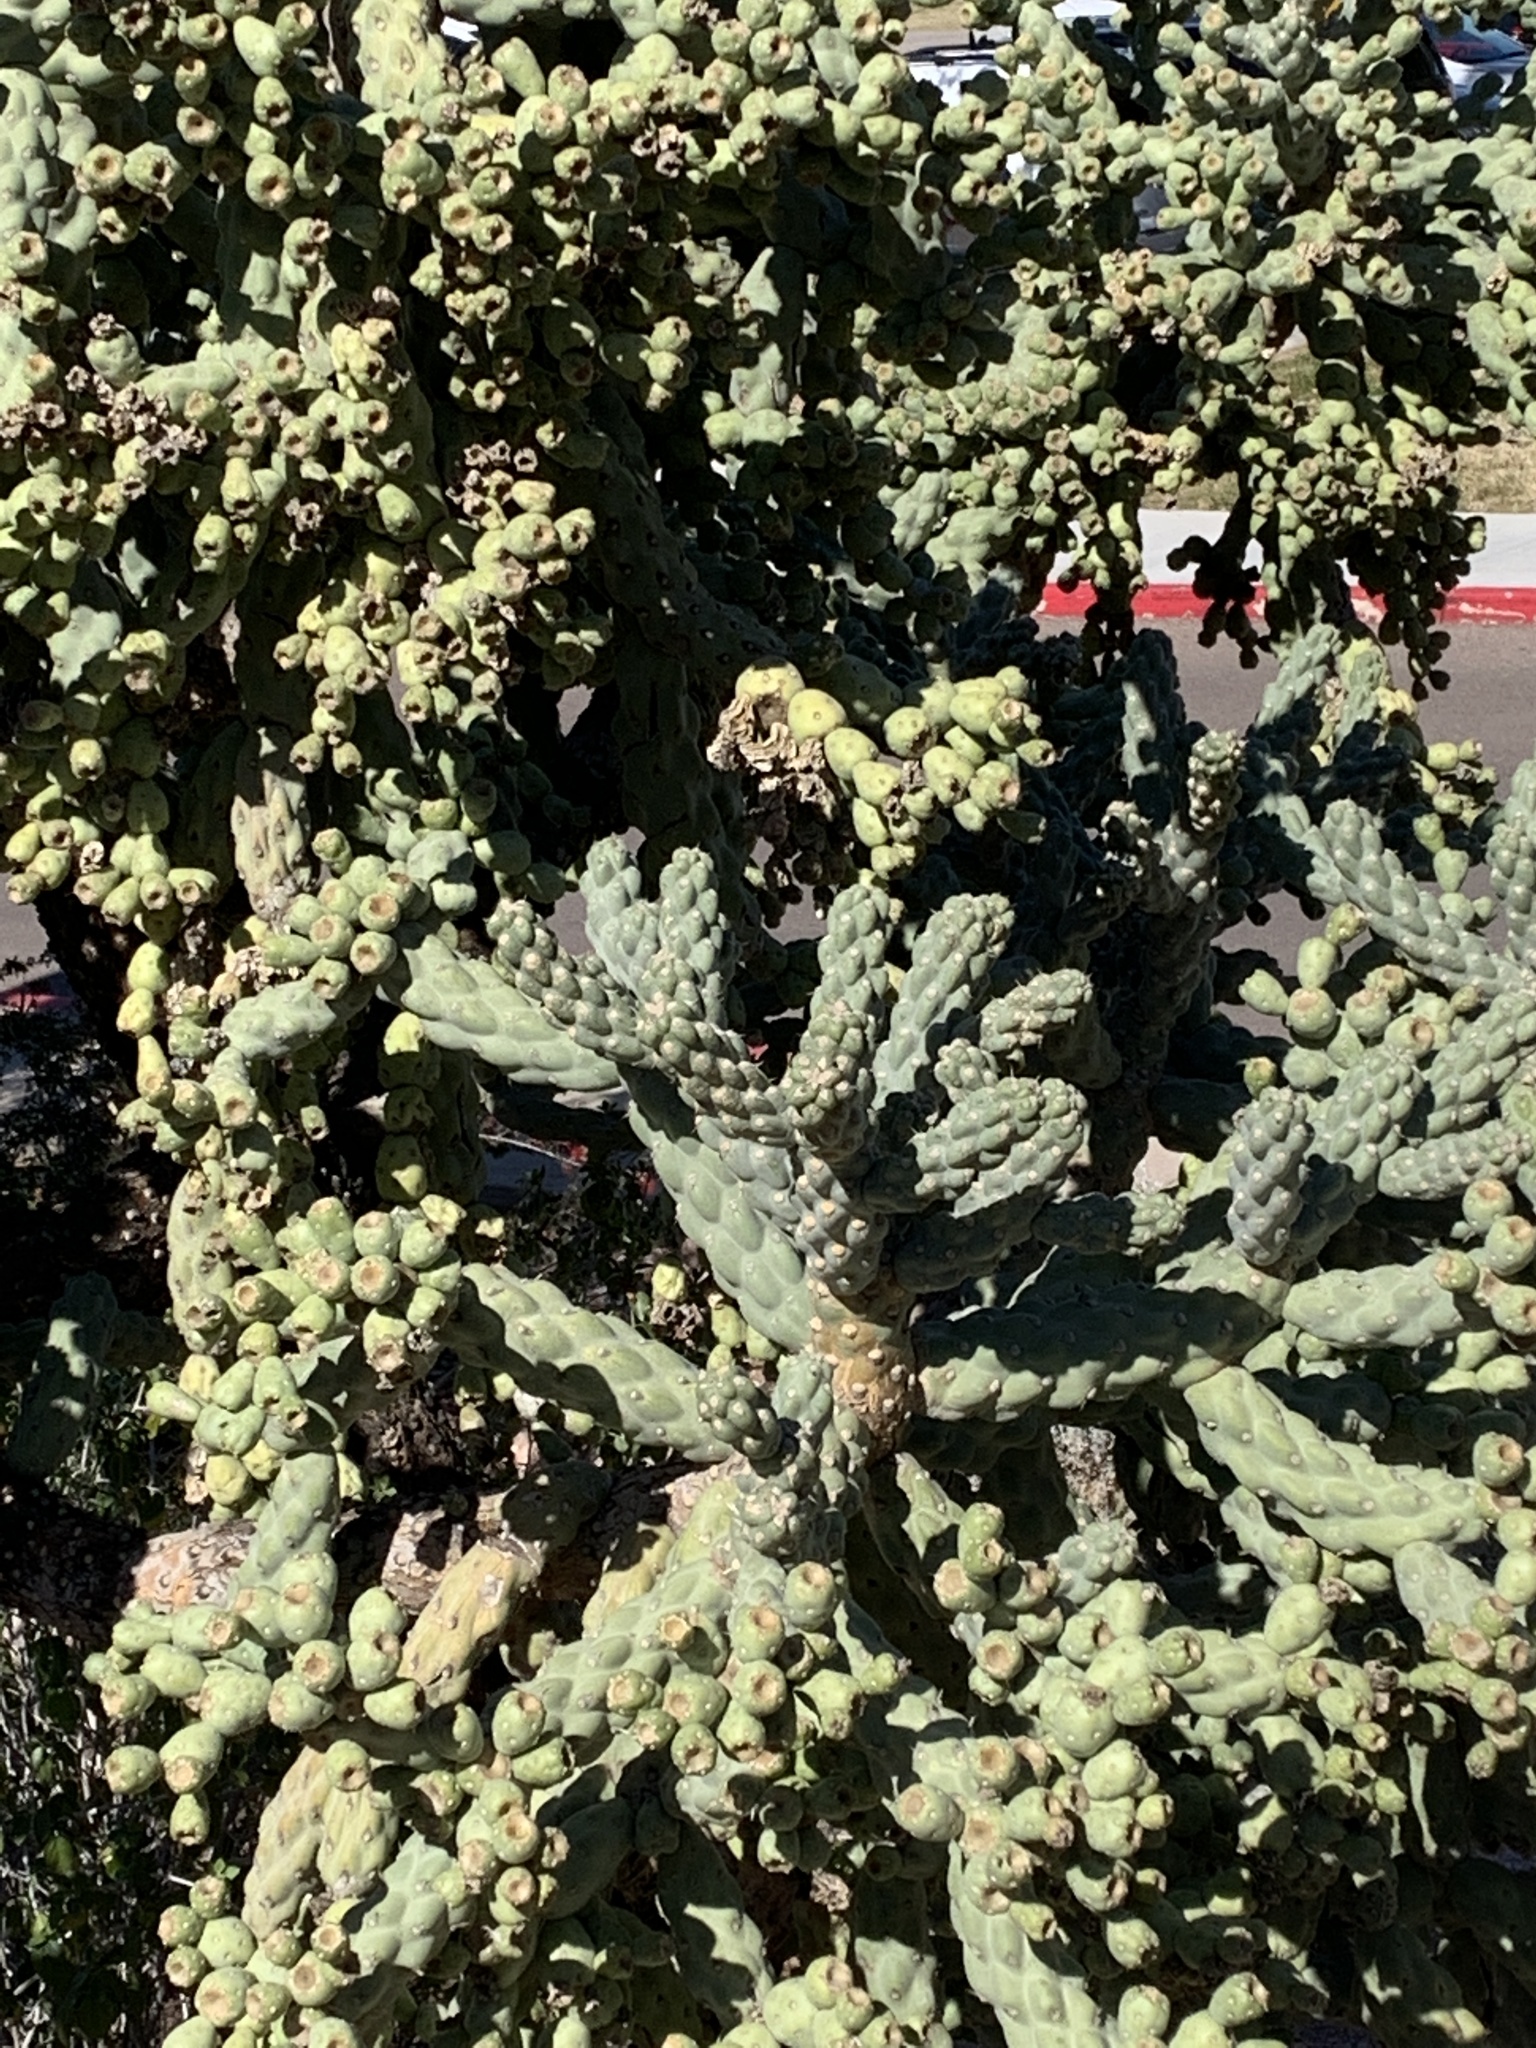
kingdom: Plantae
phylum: Tracheophyta
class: Magnoliopsida
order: Caryophyllales
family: Cactaceae
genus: Cylindropuntia
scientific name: Cylindropuntia fulgida
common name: Jumping cholla
